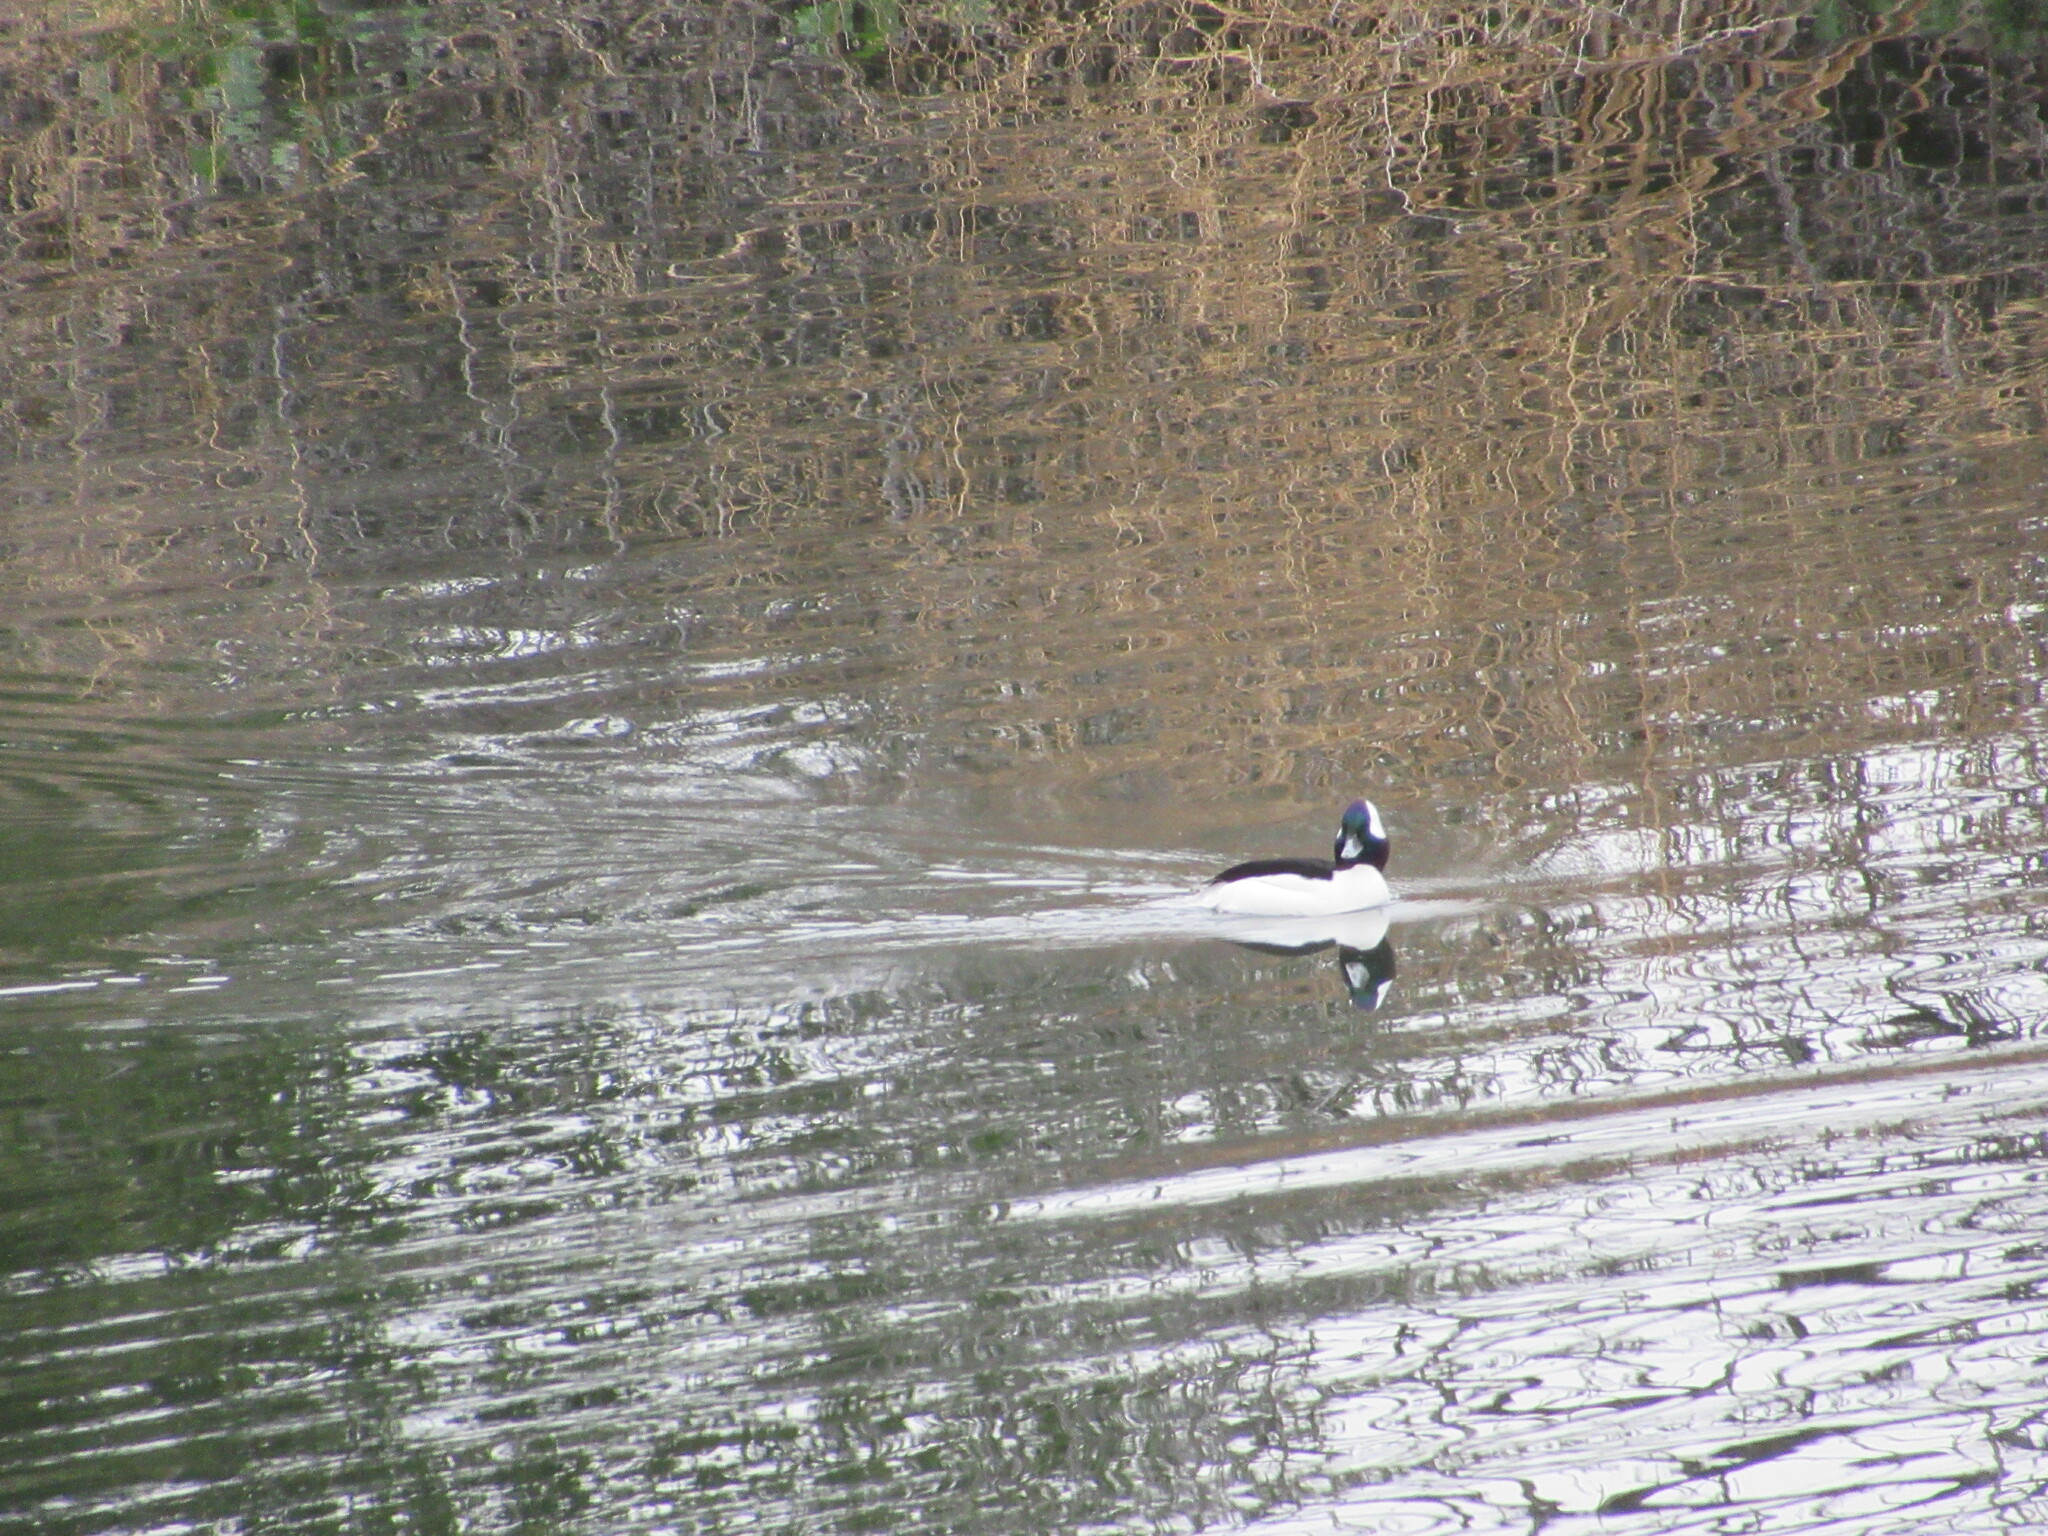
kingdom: Animalia
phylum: Chordata
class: Aves
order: Anseriformes
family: Anatidae
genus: Bucephala
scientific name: Bucephala albeola
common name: Bufflehead
